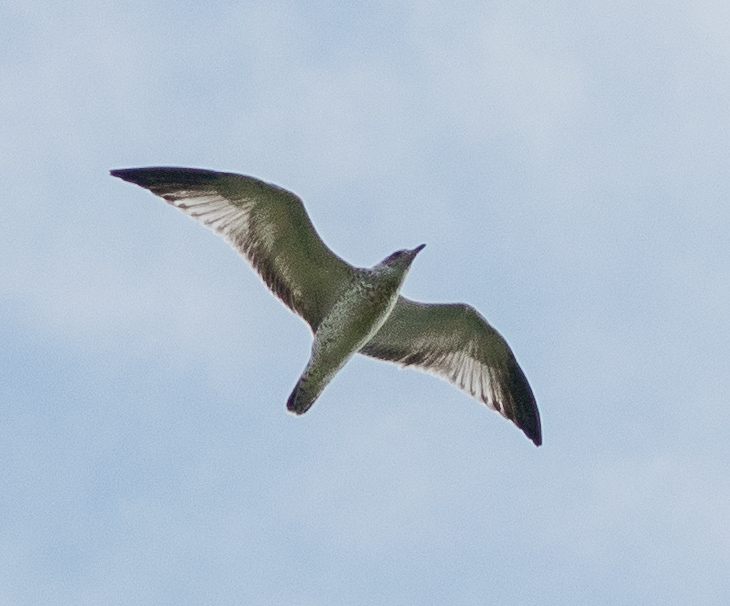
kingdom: Animalia
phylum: Chordata
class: Aves
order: Charadriiformes
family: Laridae
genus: Larus
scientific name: Larus delawarensis
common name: Ring-billed gull
